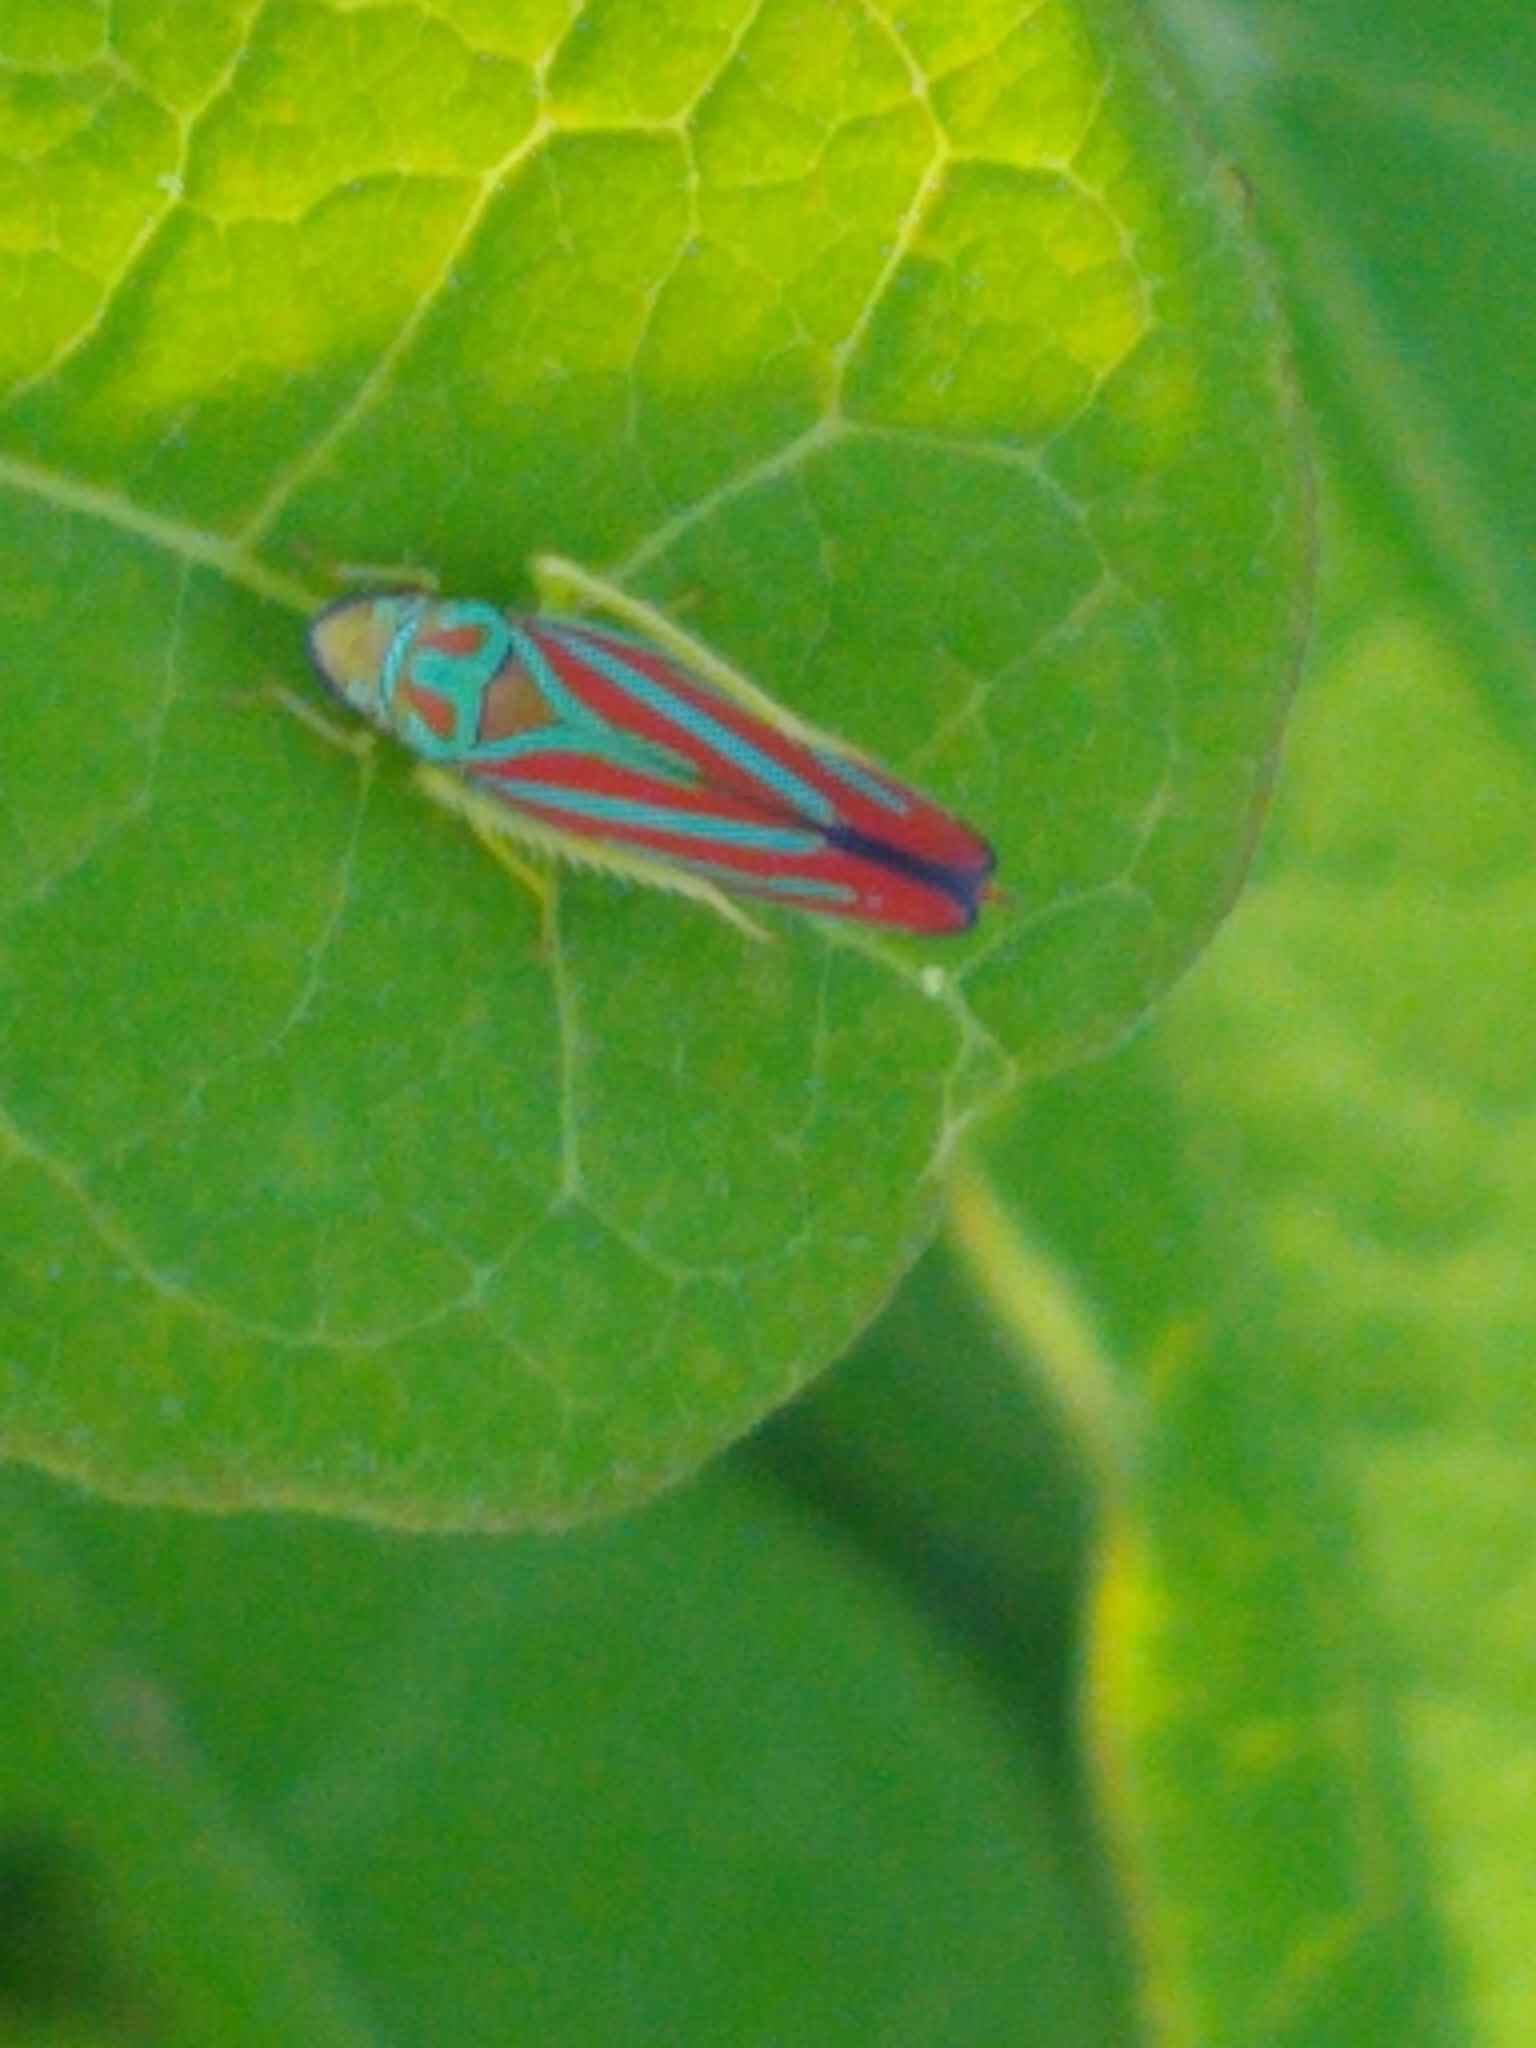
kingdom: Animalia
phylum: Arthropoda
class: Insecta
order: Hemiptera
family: Cicadellidae
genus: Graphocephala
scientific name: Graphocephala coccinea
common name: Candy-striped leafhopper
